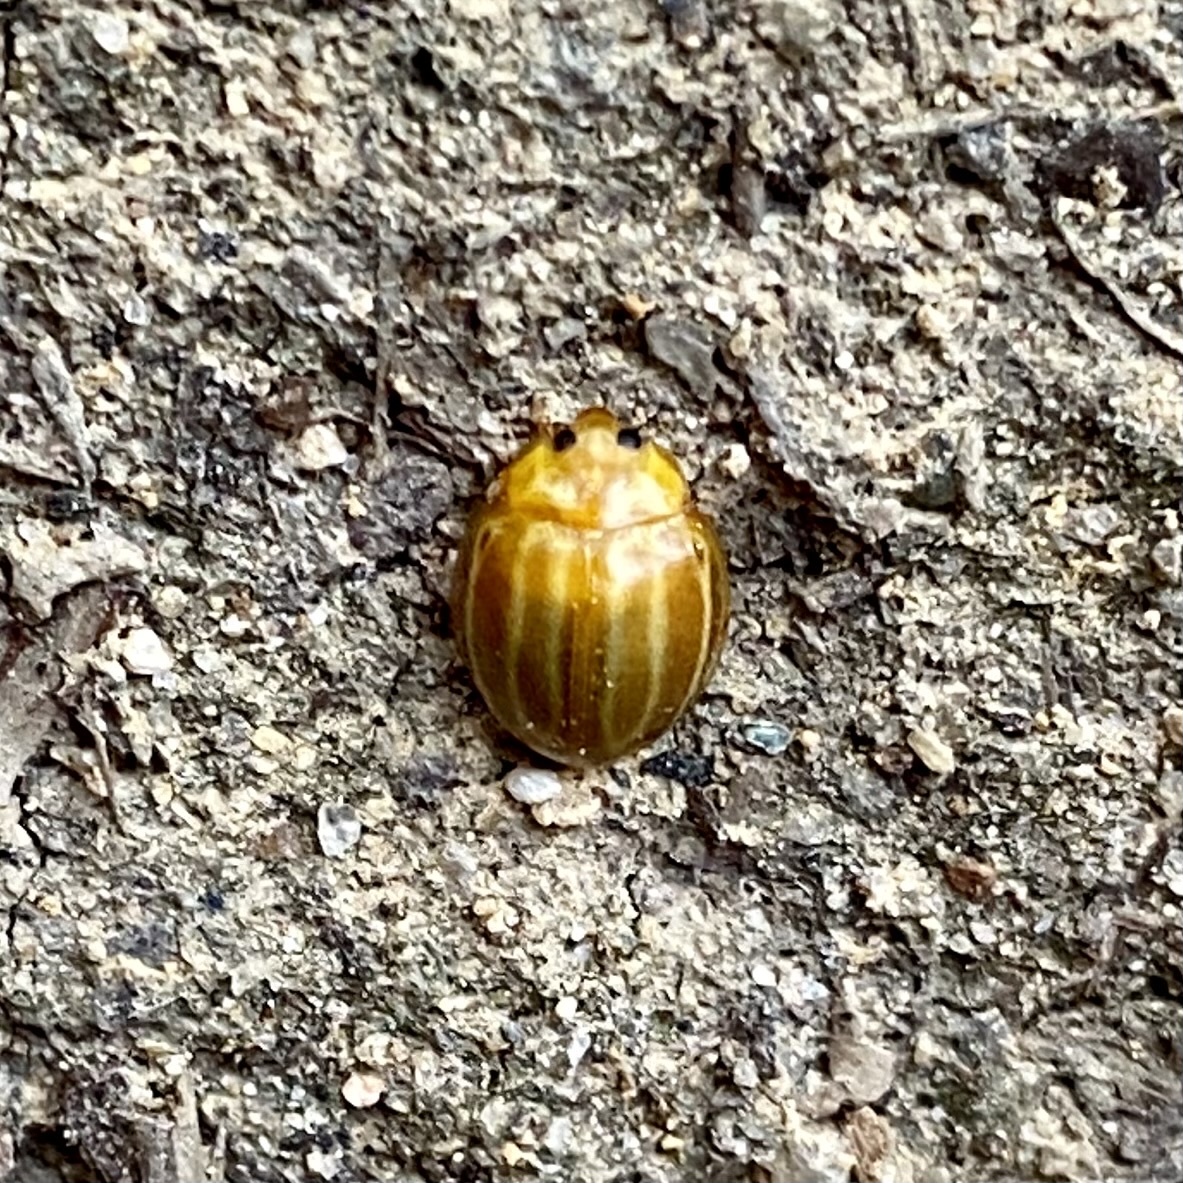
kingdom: Animalia
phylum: Arthropoda
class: Insecta
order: Coleoptera
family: Coccinellidae
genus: Microcaria
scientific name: Microcaria
